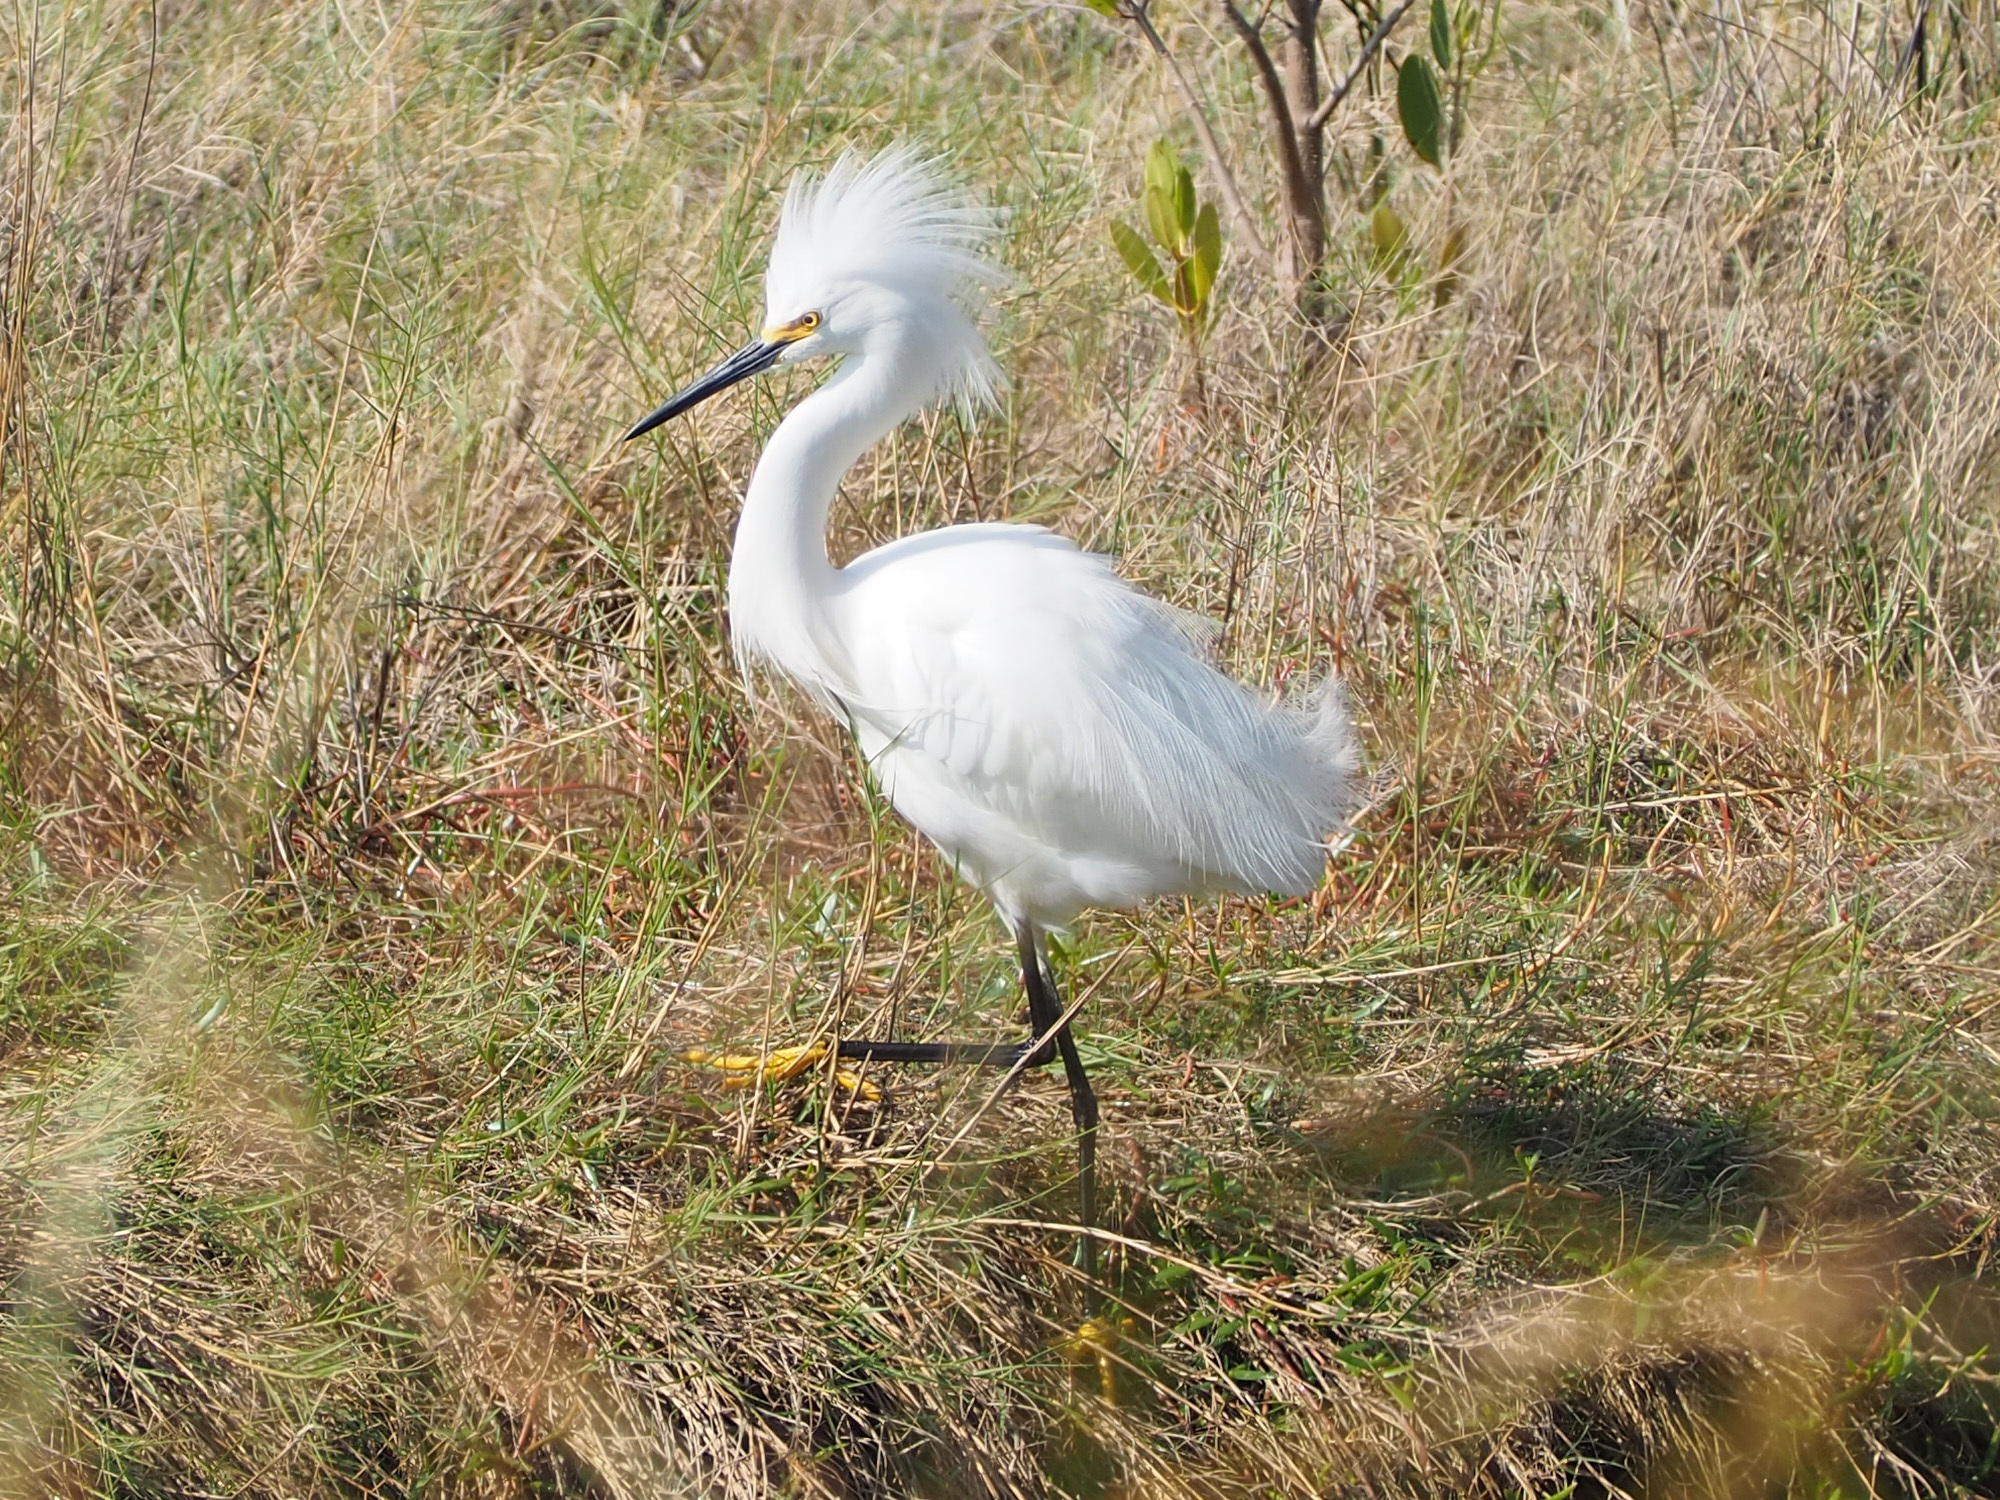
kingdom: Animalia
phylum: Chordata
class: Aves
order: Pelecaniformes
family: Ardeidae
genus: Egretta
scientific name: Egretta thula
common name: Snowy egret
